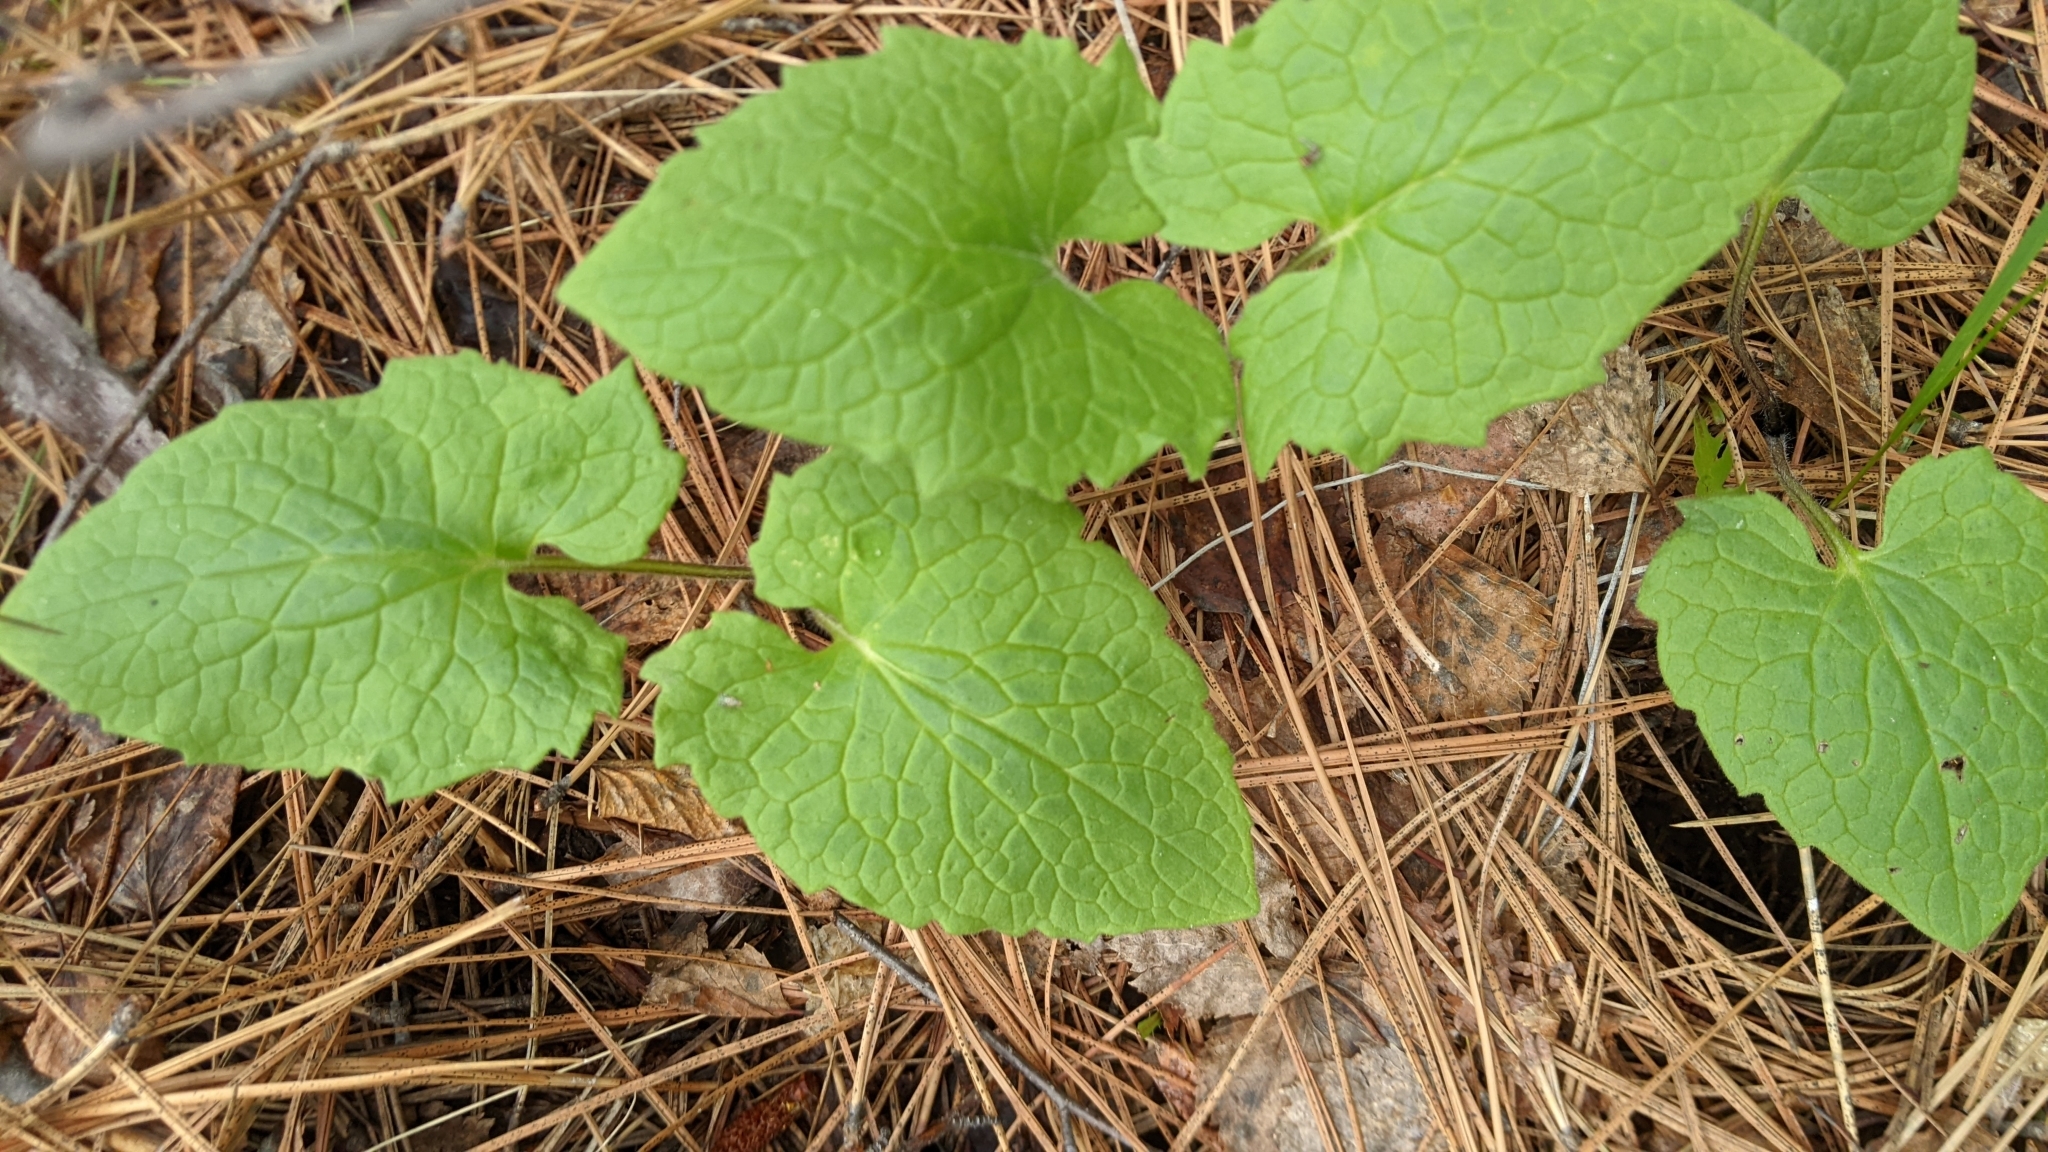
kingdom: Plantae
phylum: Tracheophyta
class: Magnoliopsida
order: Asterales
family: Asteraceae
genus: Arnica
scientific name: Arnica cordifolia
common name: Heart-leaf arnica
